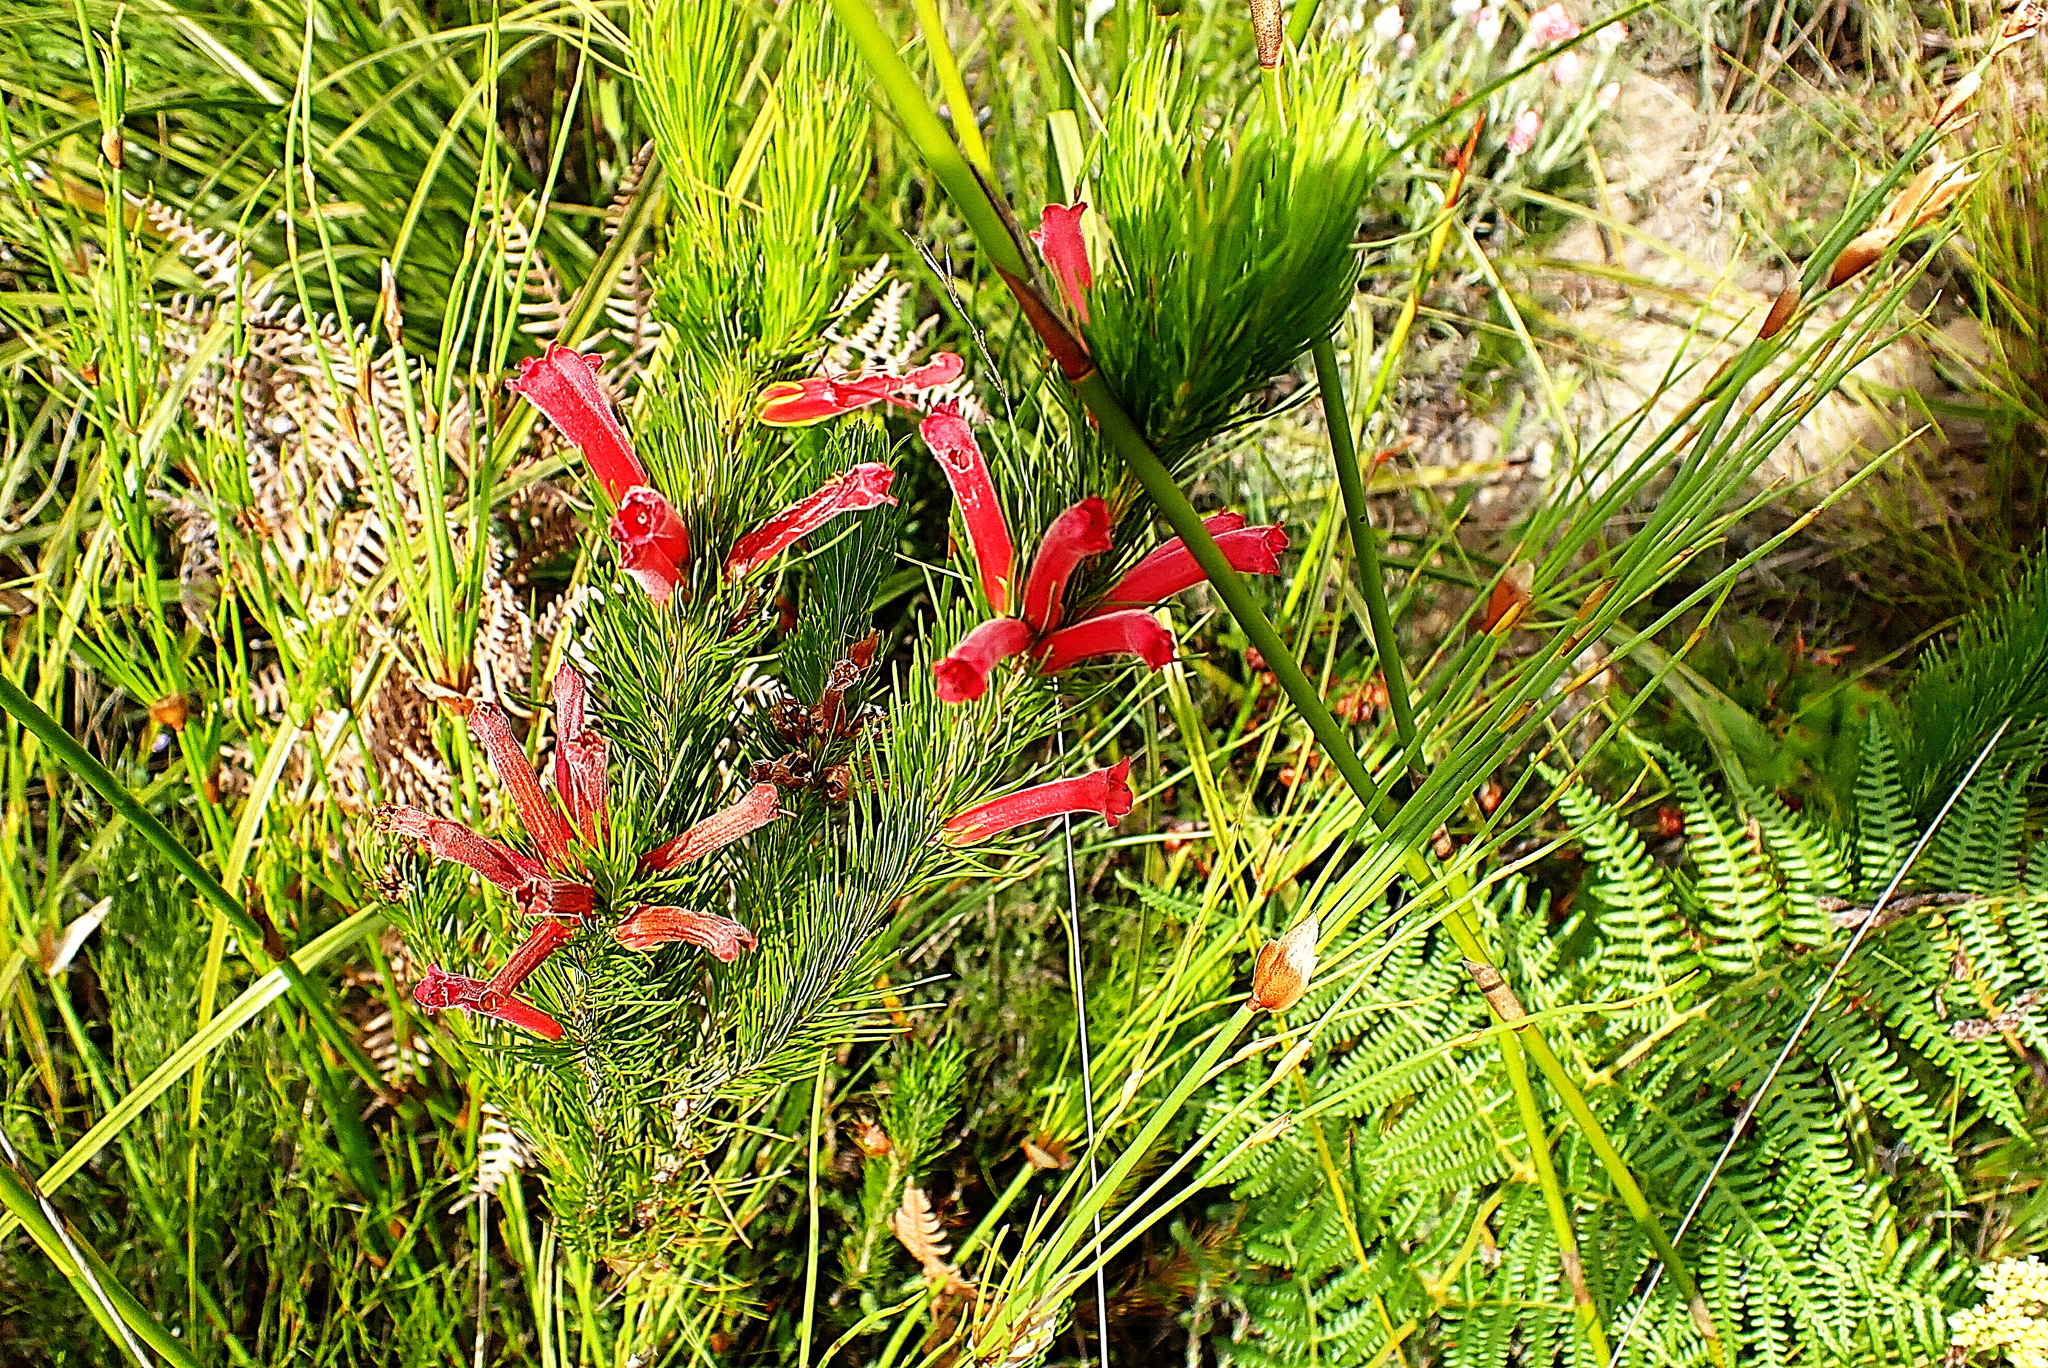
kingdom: Plantae
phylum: Tracheophyta
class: Magnoliopsida
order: Ericales
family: Ericaceae
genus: Erica
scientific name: Erica vestita
